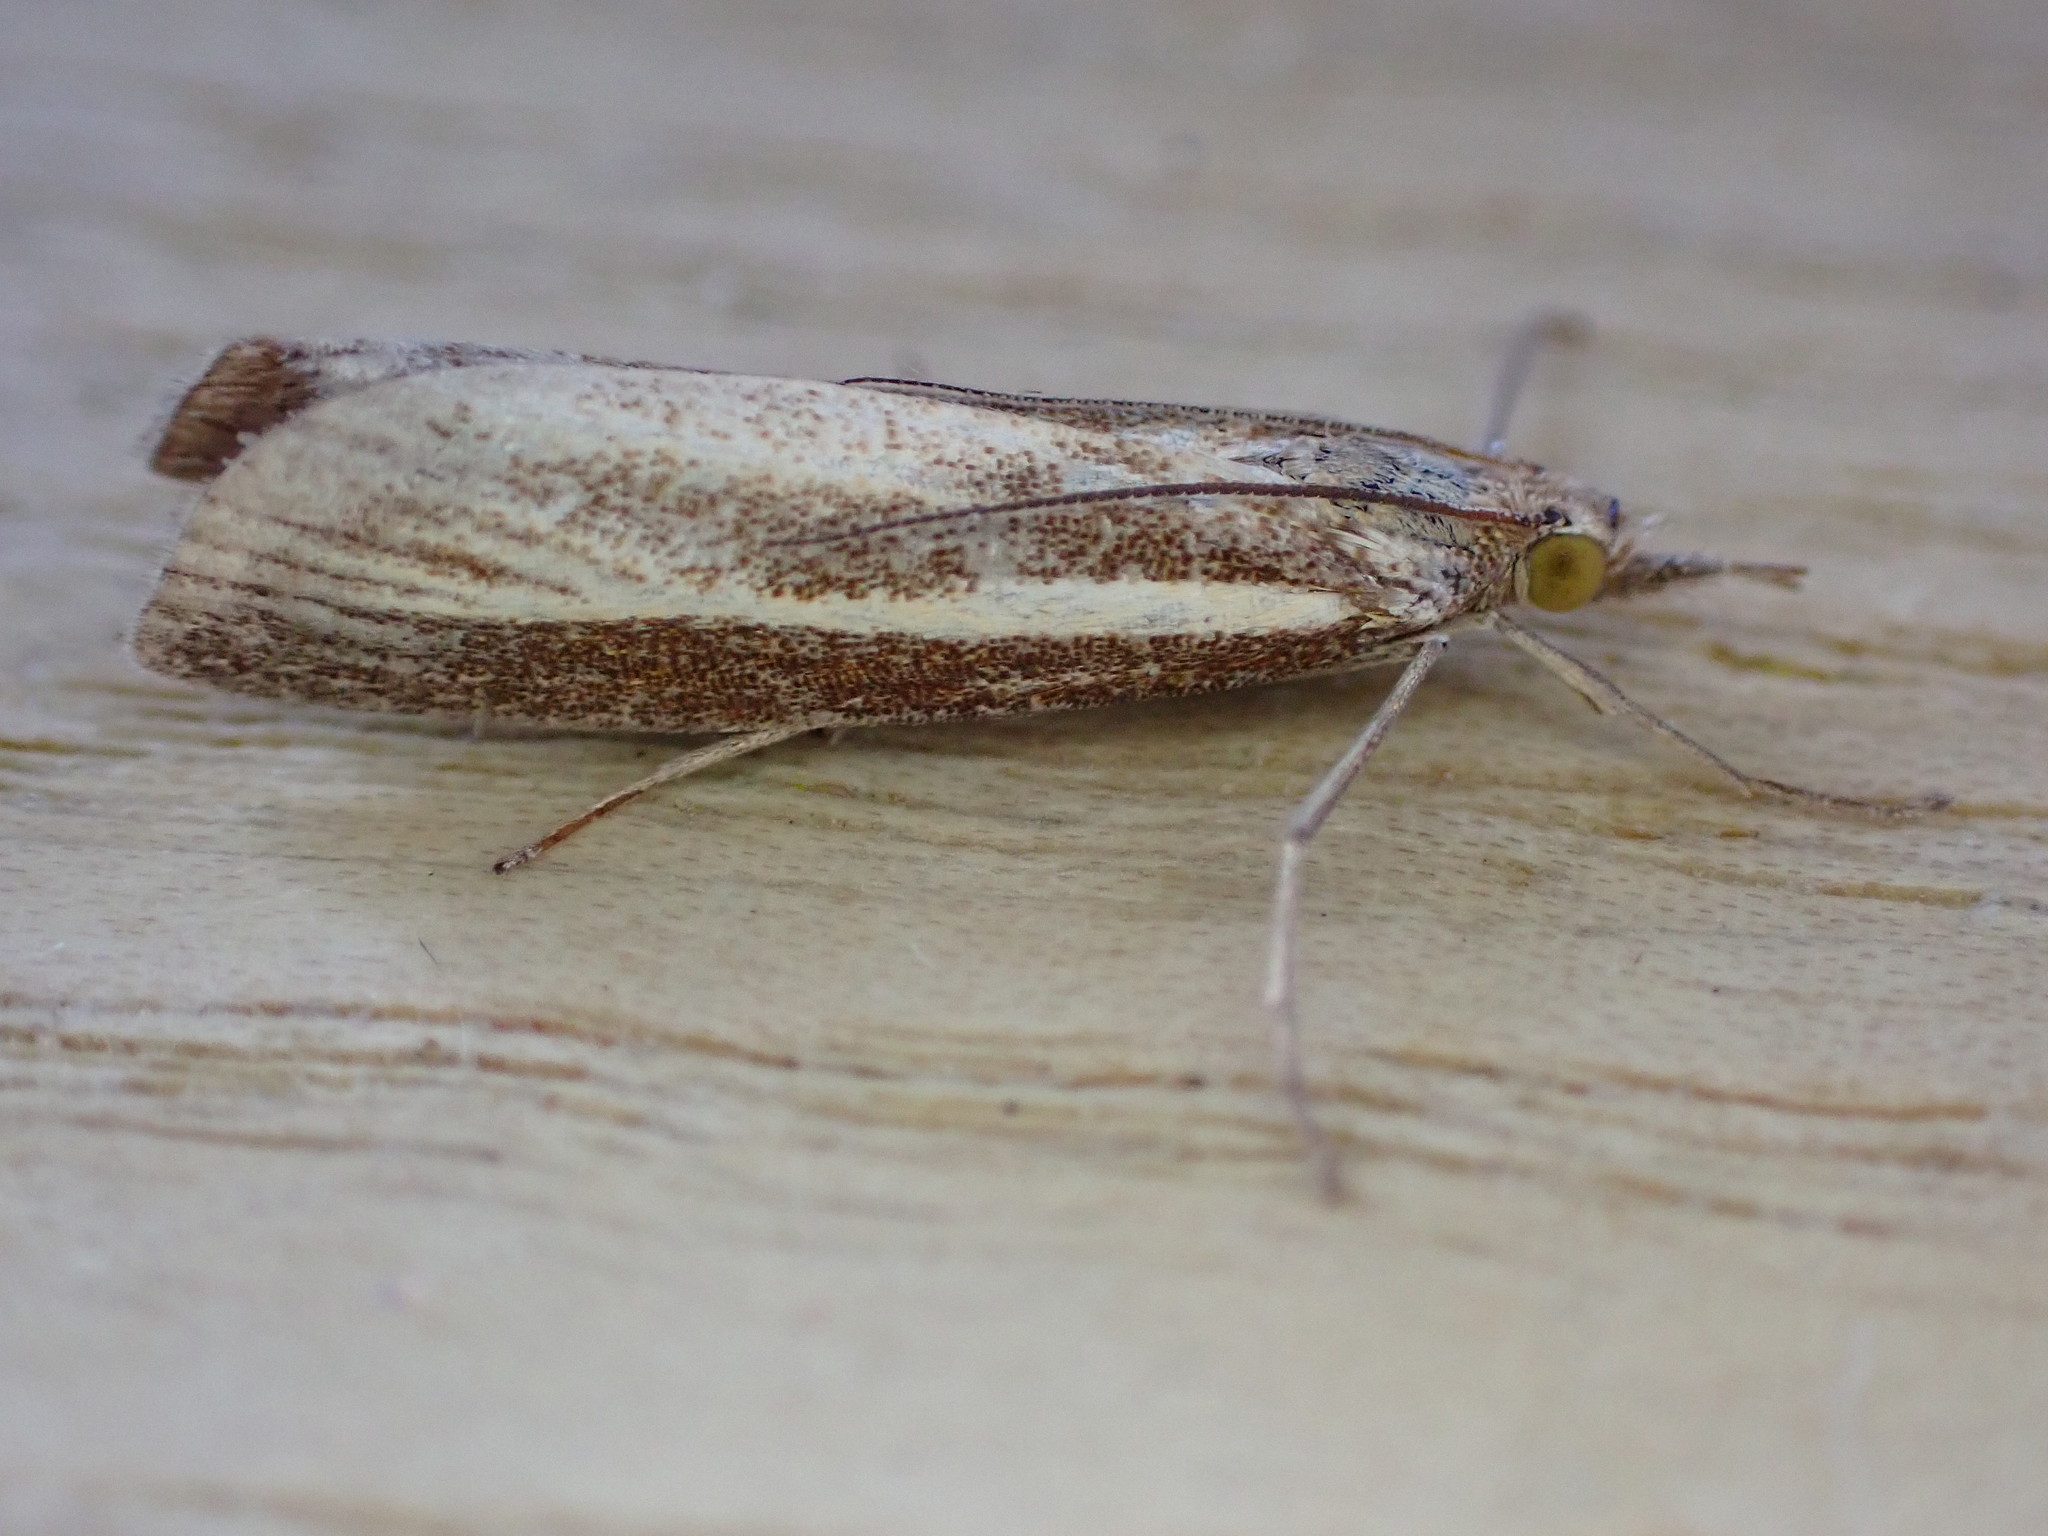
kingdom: Animalia
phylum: Arthropoda
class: Insecta
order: Lepidoptera
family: Crambidae
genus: Agriphila
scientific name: Agriphila tristellus
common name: Common grass-veneer
